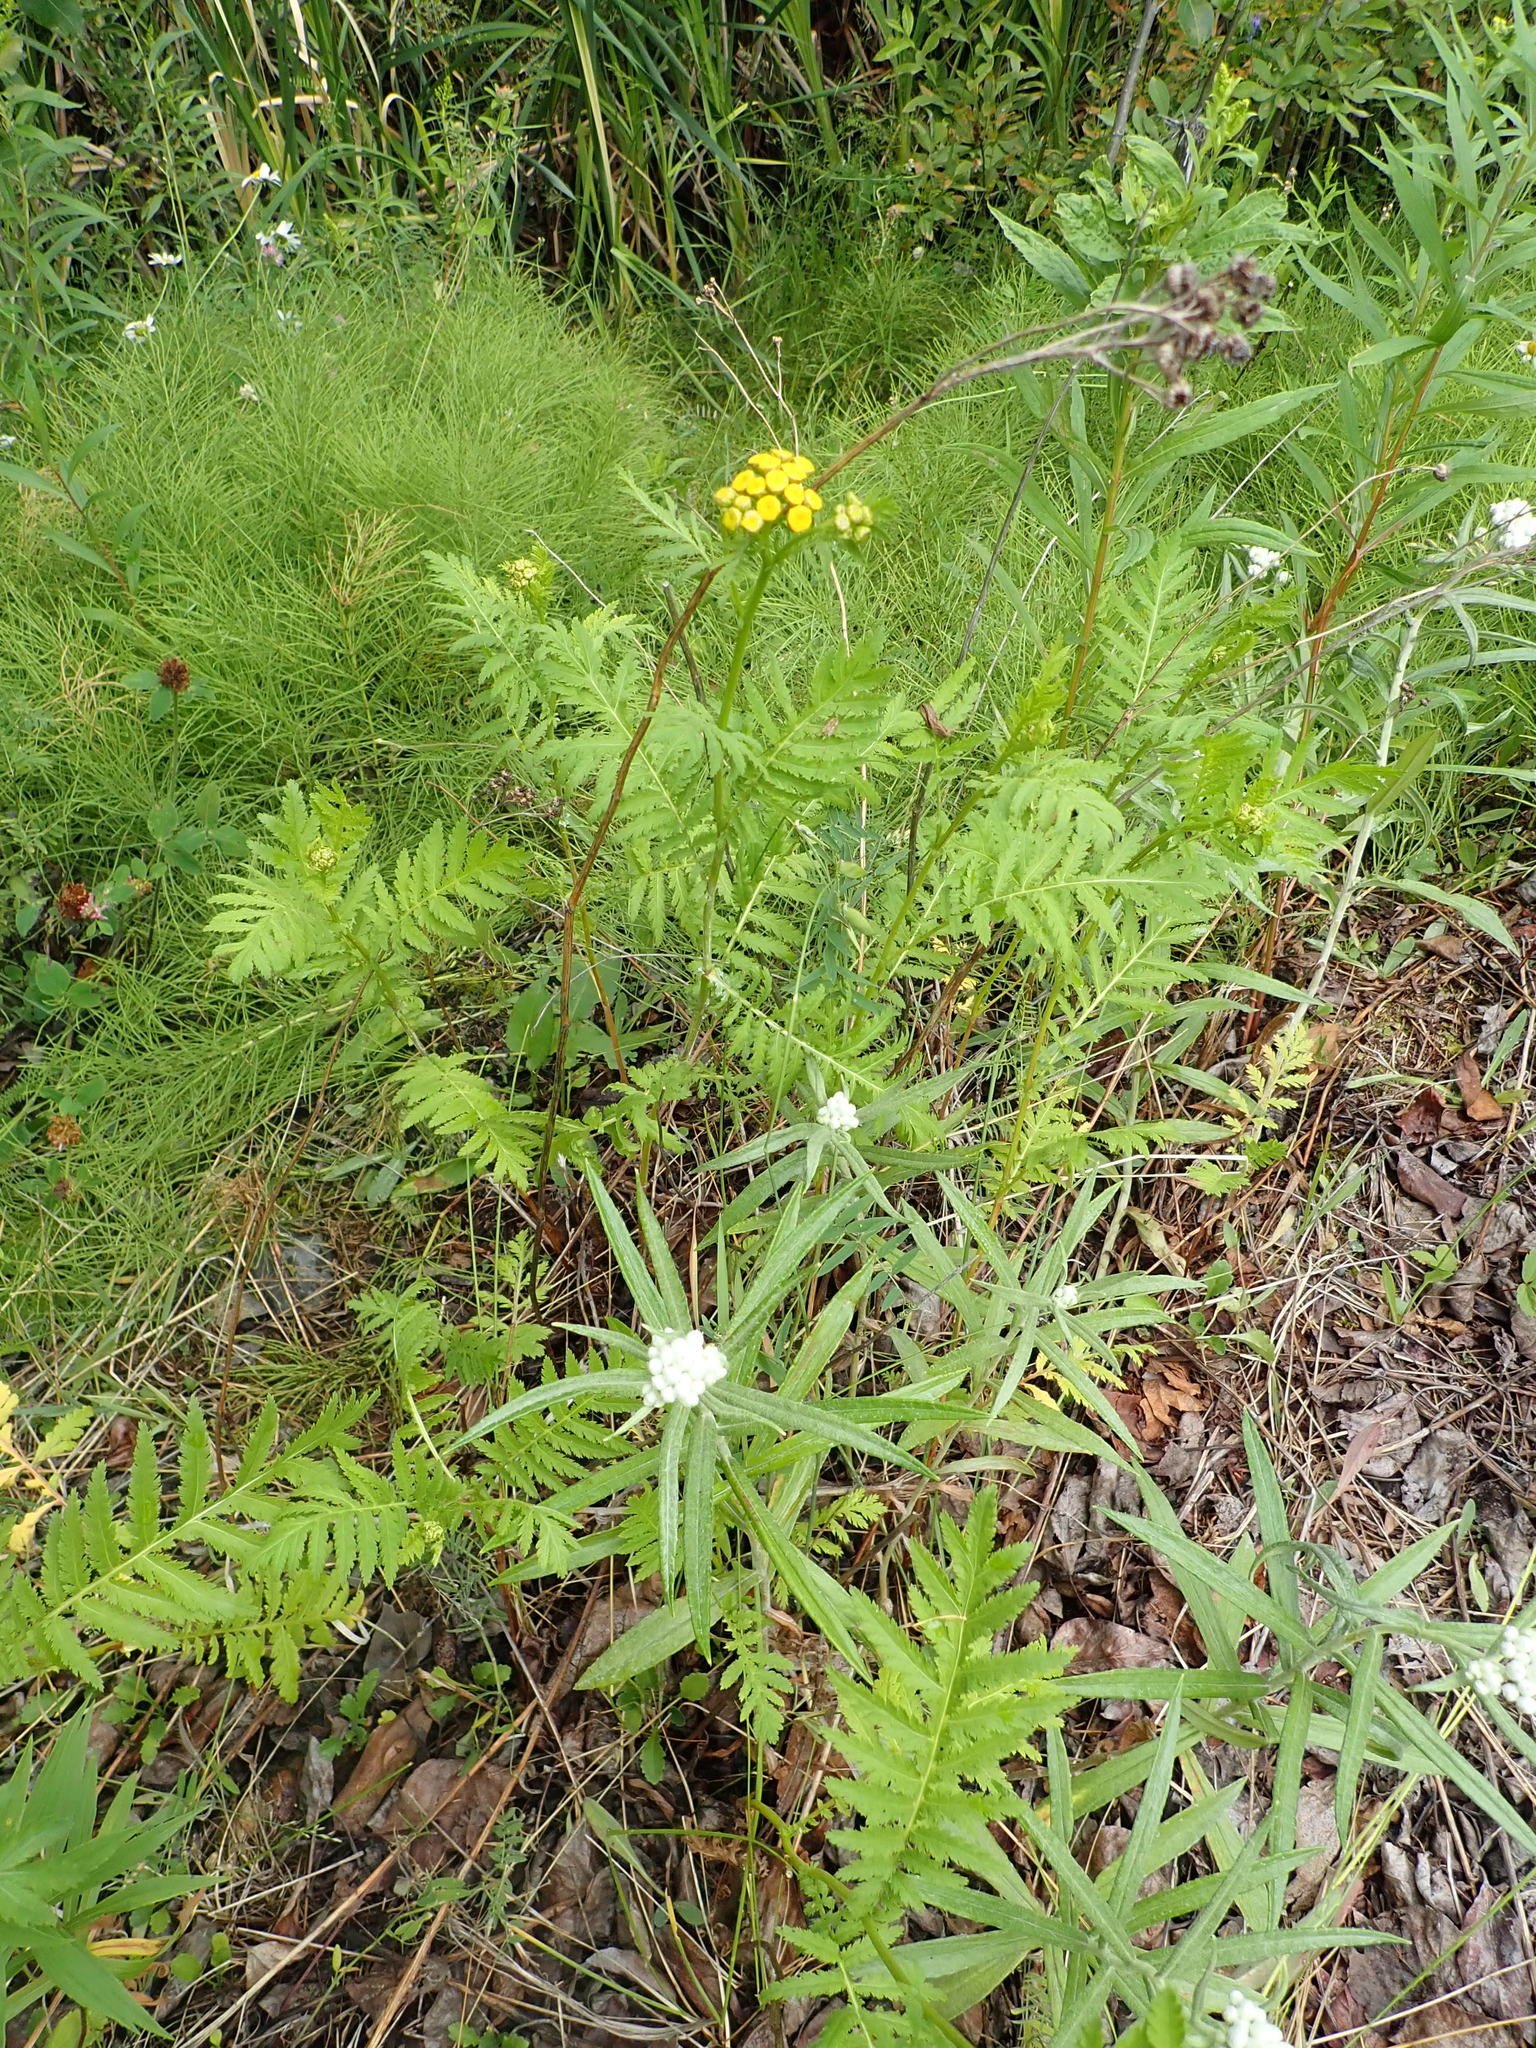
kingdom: Plantae
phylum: Tracheophyta
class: Magnoliopsida
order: Asterales
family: Asteraceae
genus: Tanacetum
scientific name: Tanacetum vulgare
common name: Common tansy
